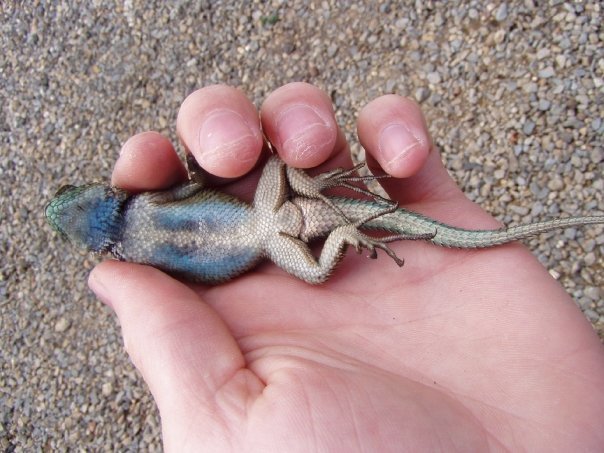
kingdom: Animalia
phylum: Chordata
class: Squamata
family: Phrynosomatidae
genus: Sceloporus
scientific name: Sceloporus malachiticus
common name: Green spiny lizard
